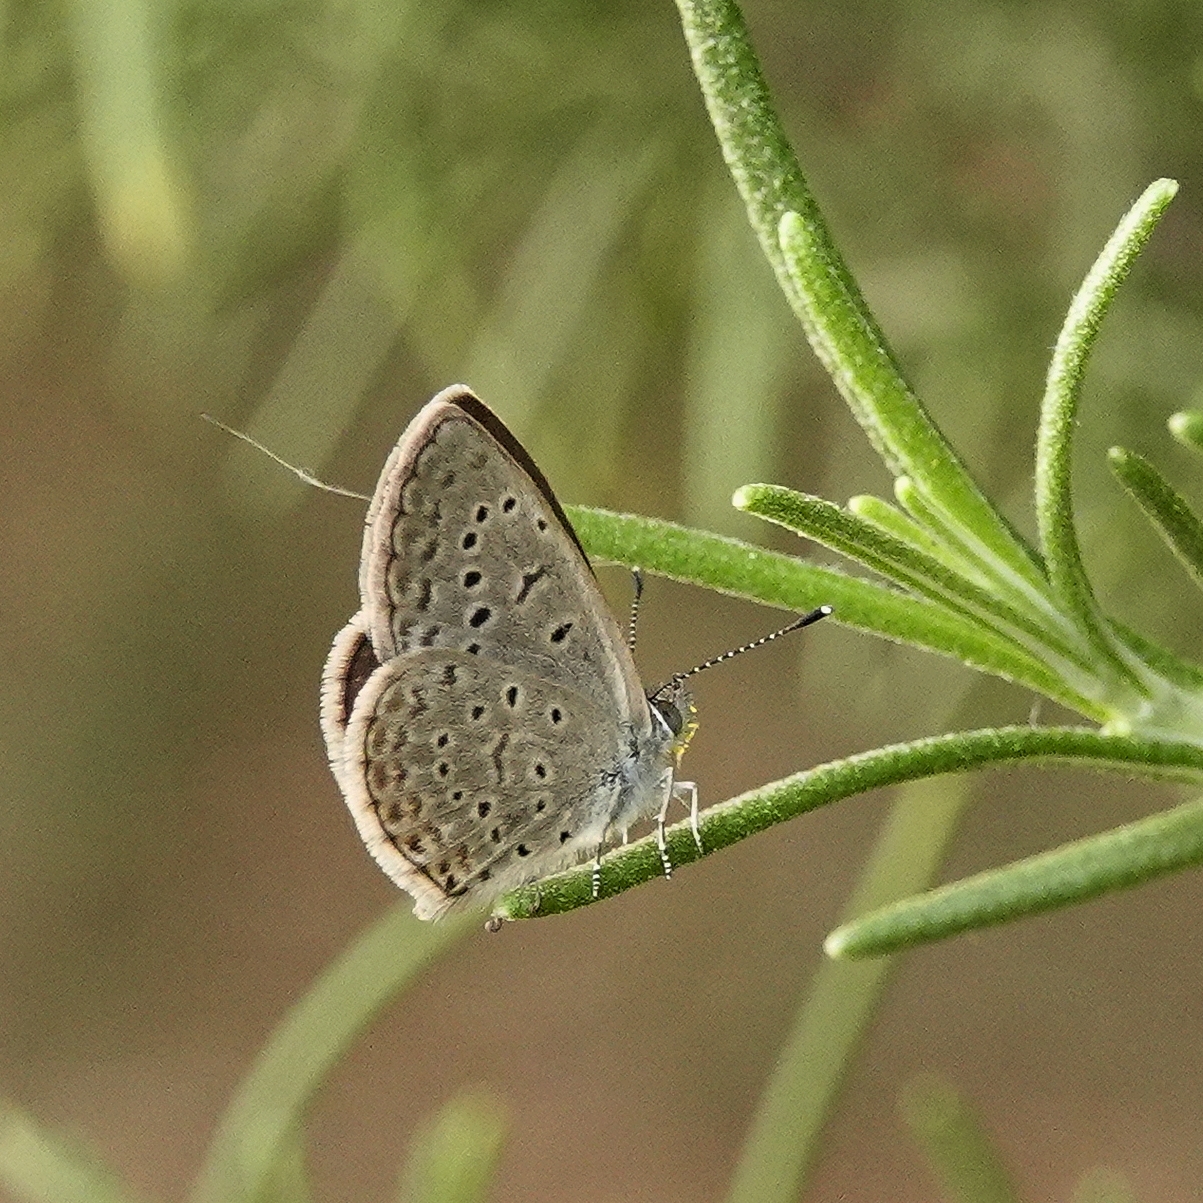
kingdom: Animalia
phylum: Arthropoda
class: Insecta
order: Lepidoptera
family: Lycaenidae
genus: Zizeeria
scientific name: Zizeeria knysna
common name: African grass blue
